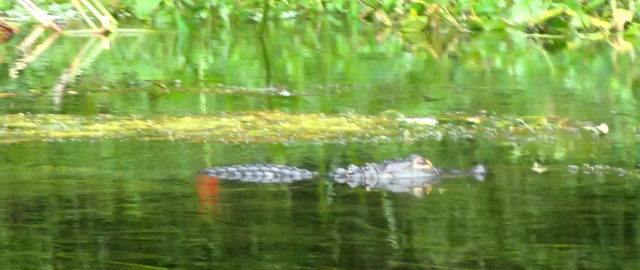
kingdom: Animalia
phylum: Chordata
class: Crocodylia
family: Alligatoridae
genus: Alligator
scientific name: Alligator mississippiensis
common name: American alligator
